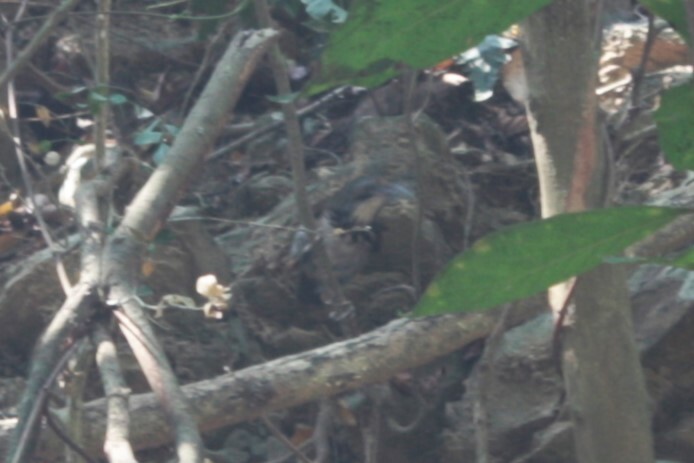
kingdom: Animalia
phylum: Chordata
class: Aves
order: Passeriformes
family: Timaliidae
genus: Pomatorhinus
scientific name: Pomatorhinus erythrocnemis
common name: Spot-breasted scimitar babbler
